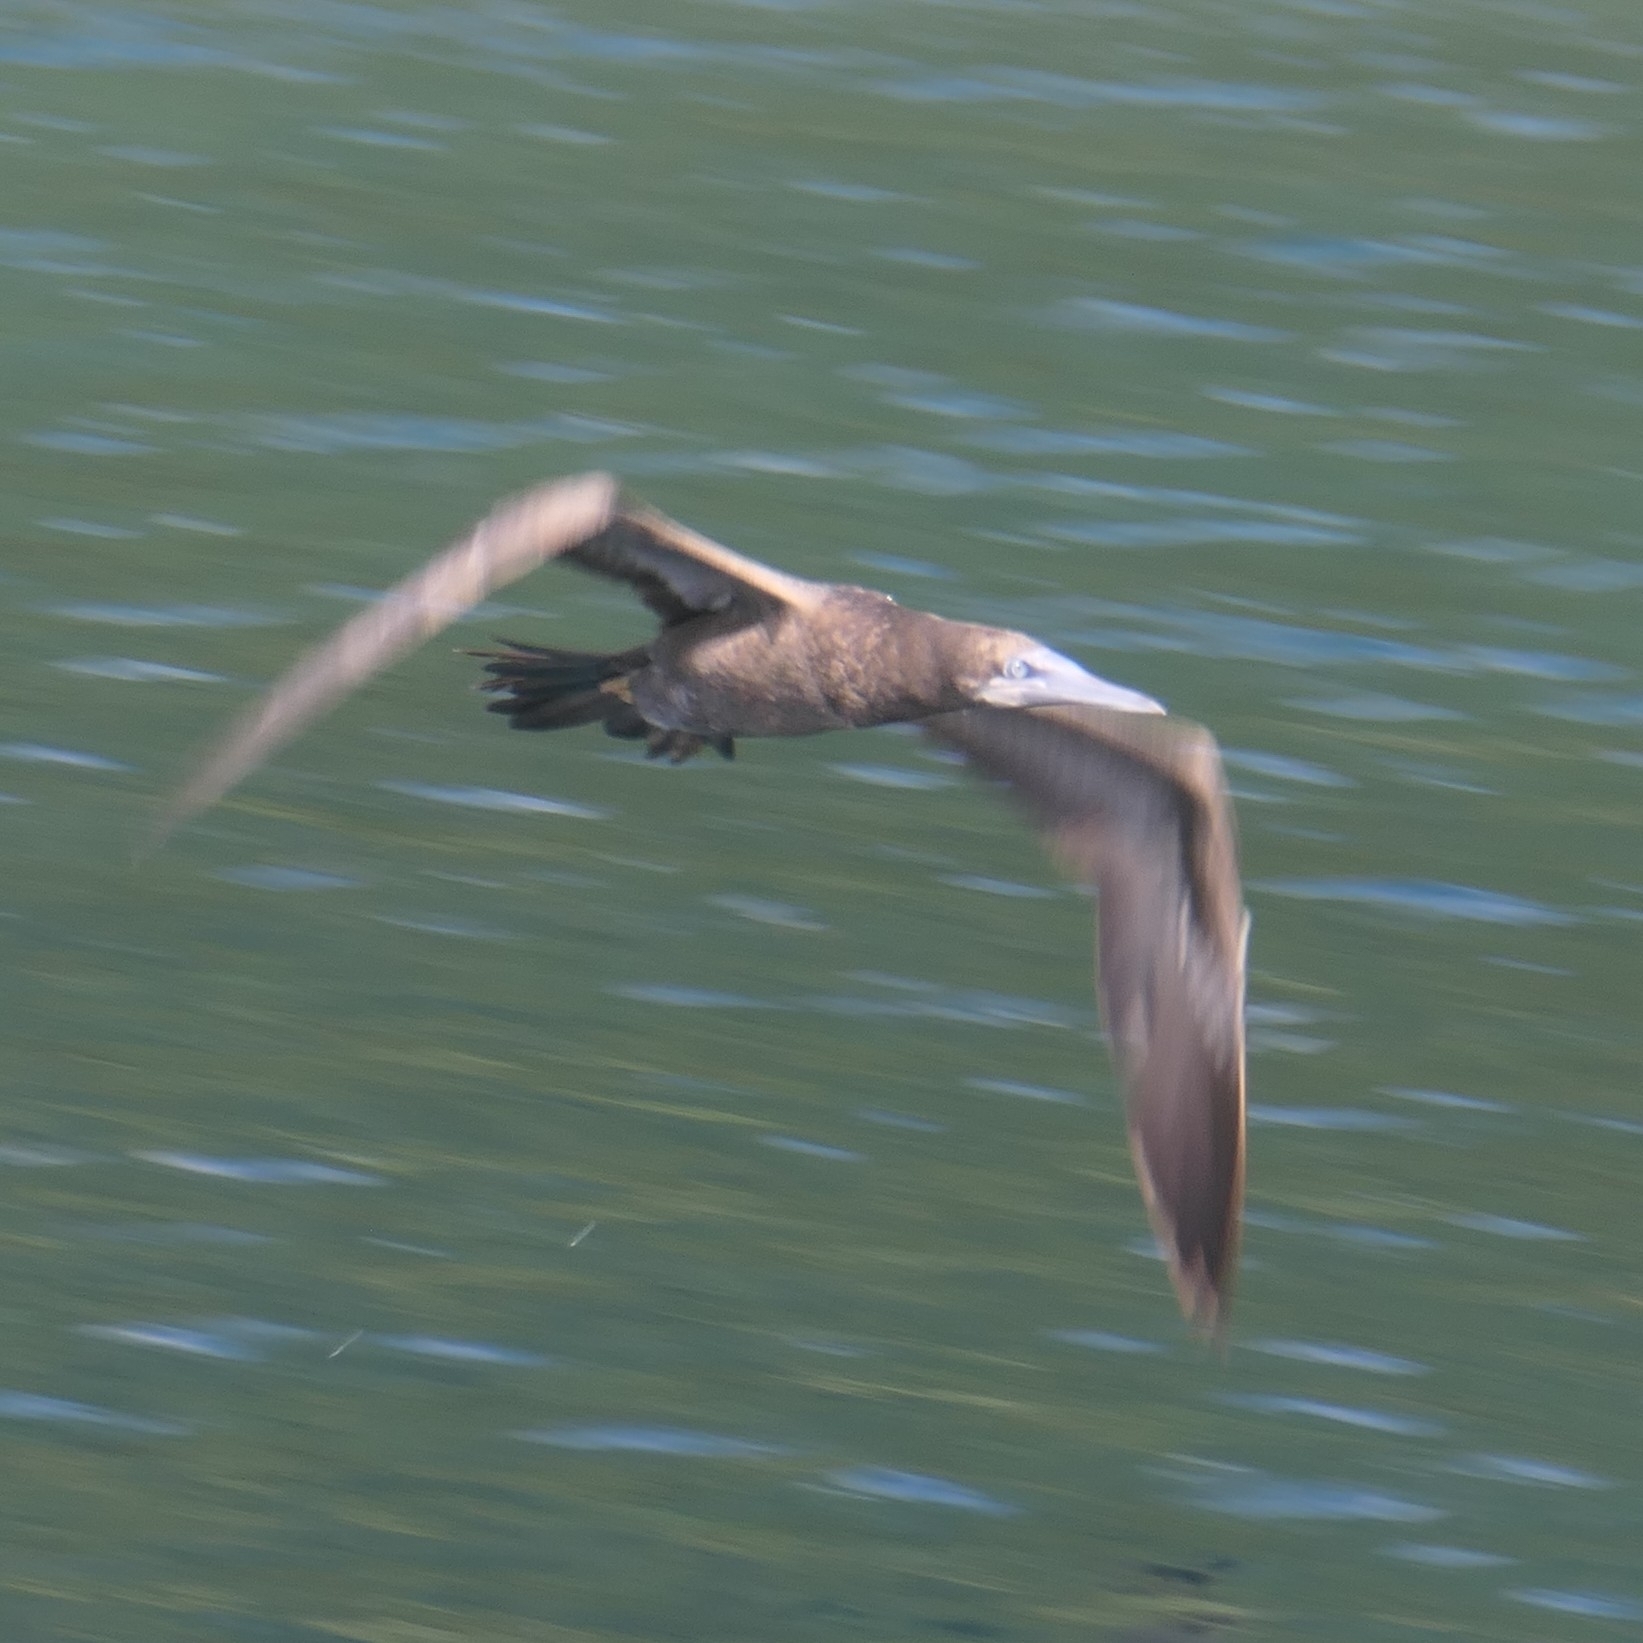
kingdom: Animalia
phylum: Chordata
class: Aves
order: Suliformes
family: Sulidae
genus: Sula
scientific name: Sula leucogaster
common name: Brown booby
